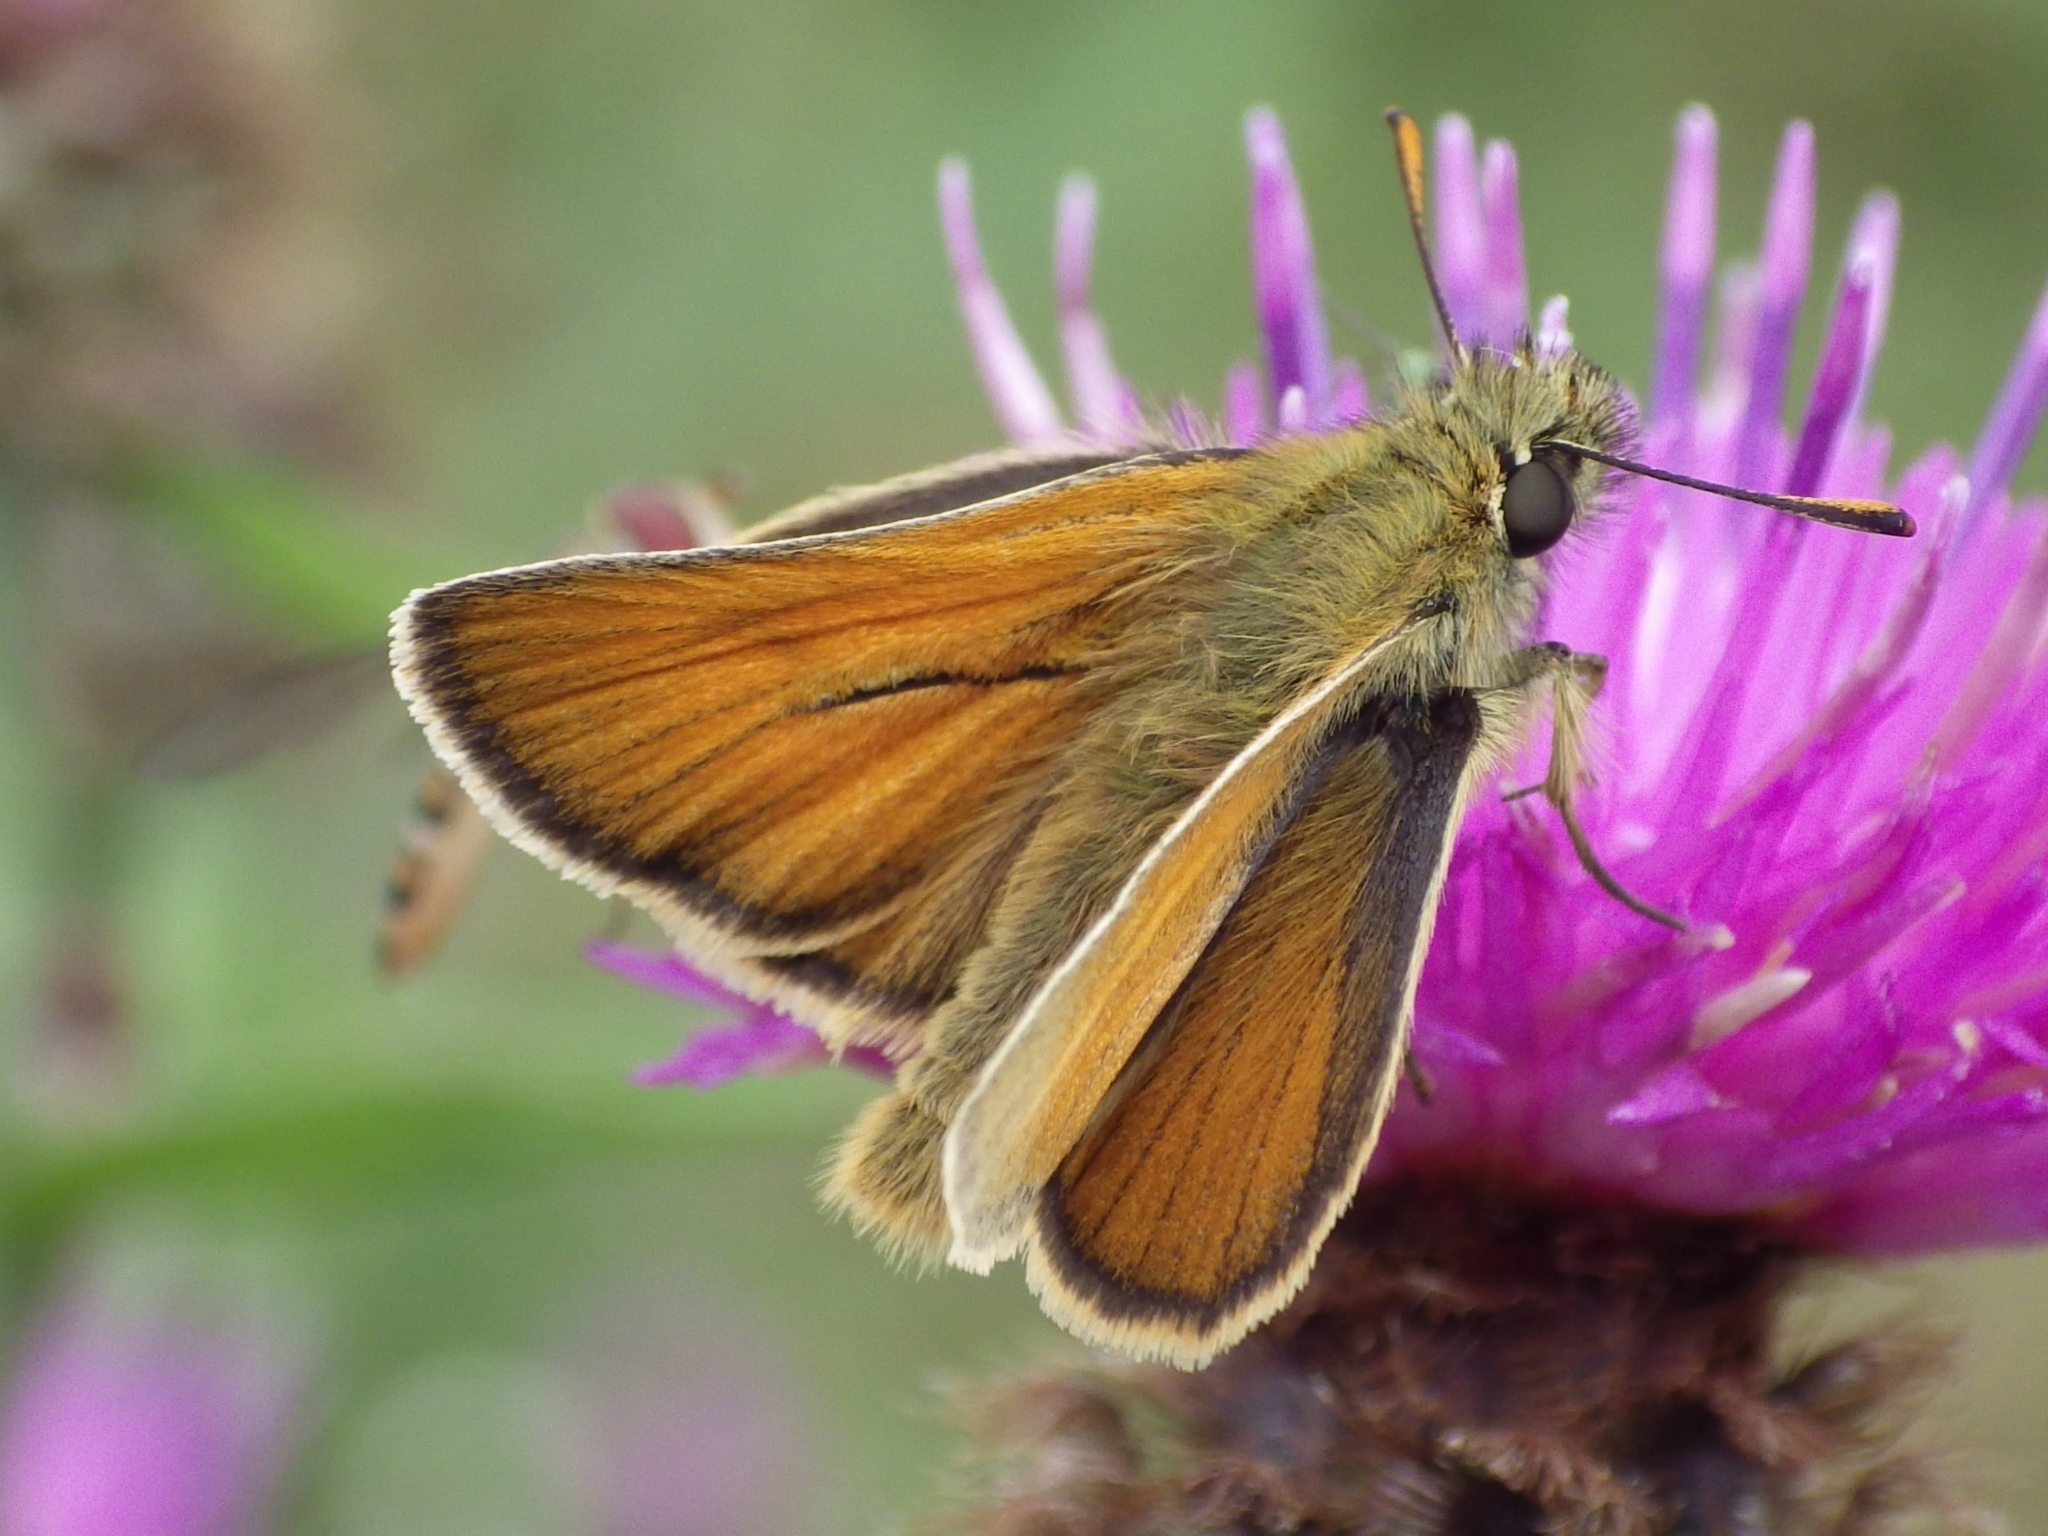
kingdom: Animalia
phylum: Arthropoda
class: Insecta
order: Lepidoptera
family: Hesperiidae
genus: Thymelicus
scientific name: Thymelicus sylvestris
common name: Small skipper
